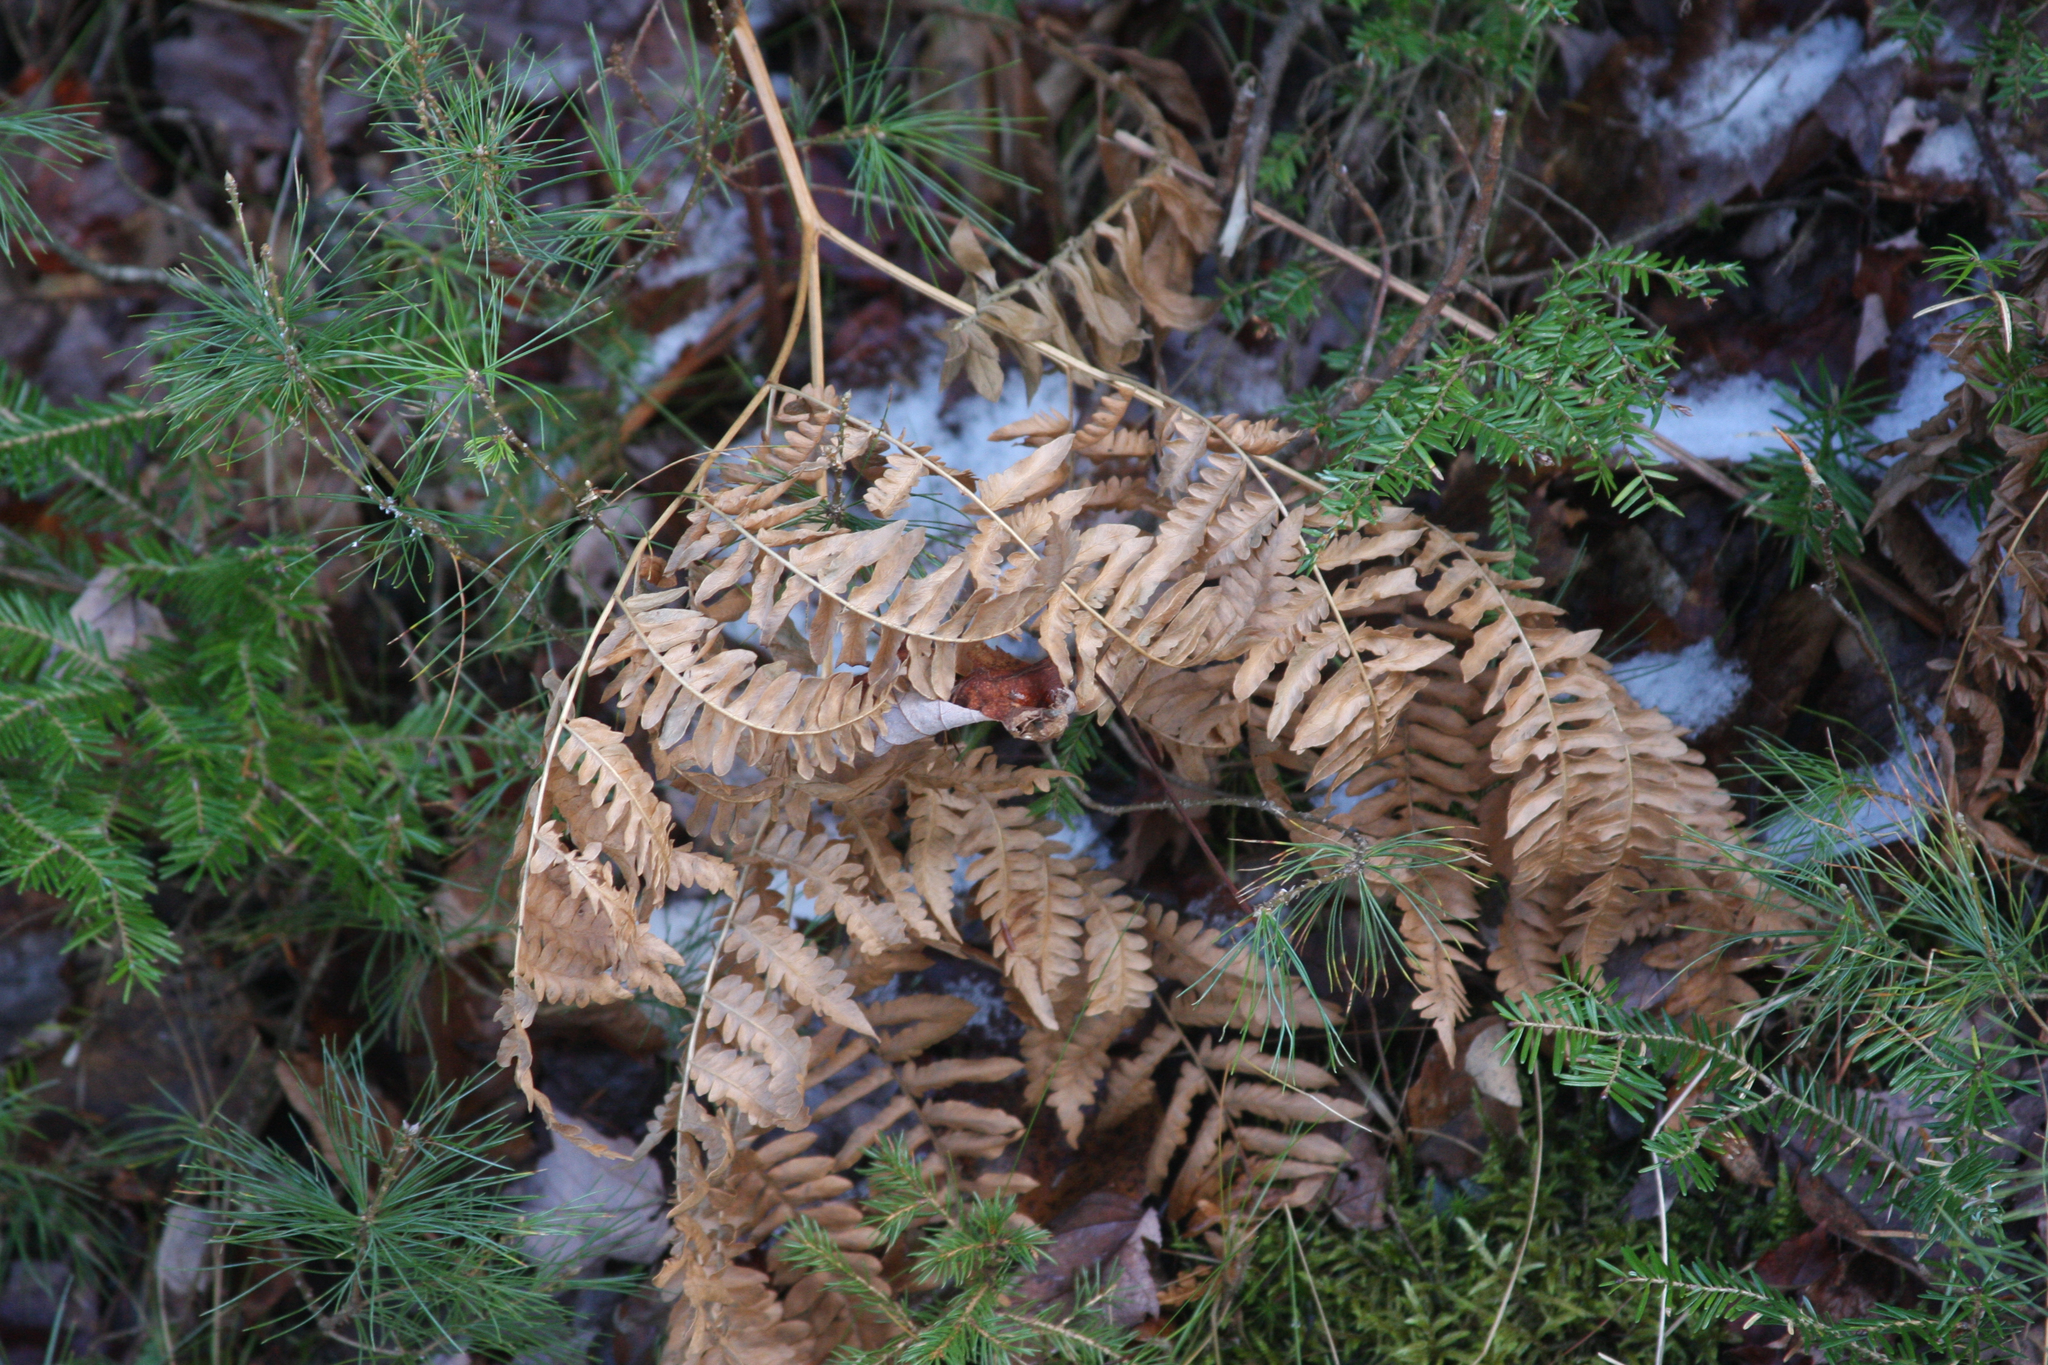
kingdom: Plantae
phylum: Tracheophyta
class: Polypodiopsida
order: Polypodiales
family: Dennstaedtiaceae
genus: Pteridium
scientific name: Pteridium aquilinum
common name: Bracken
